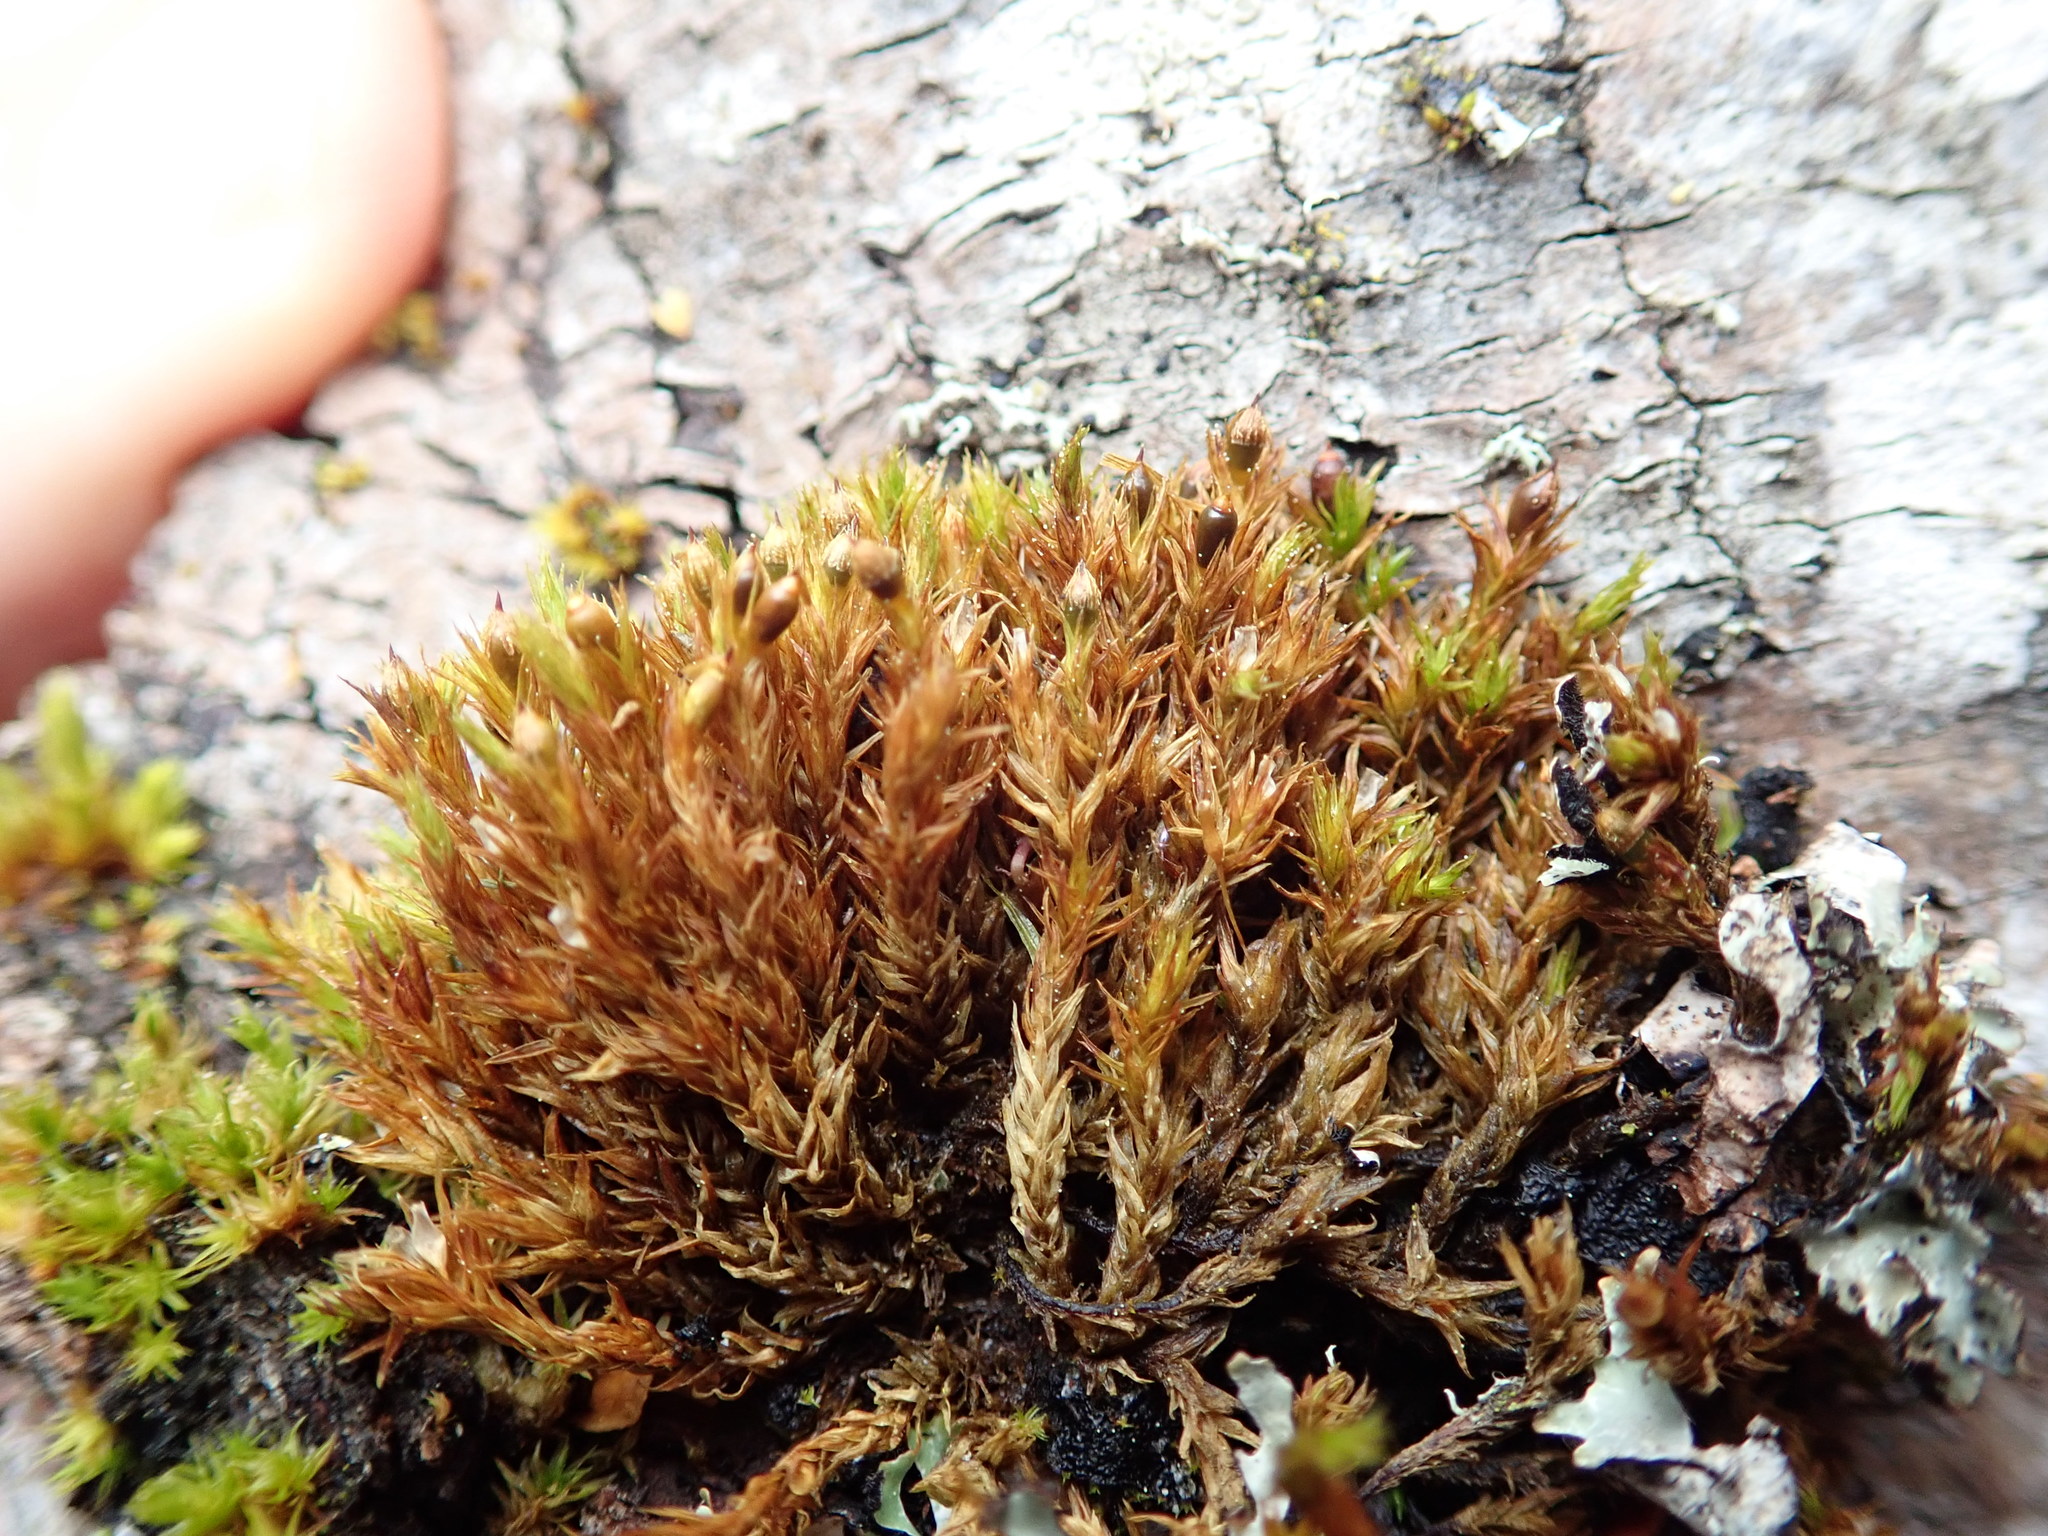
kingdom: Plantae
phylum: Bryophyta
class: Bryopsida
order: Orthotrichales
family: Orthotrichaceae
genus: Lewinskya
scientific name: Lewinskya striata
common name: Shaw's bristle-moss
